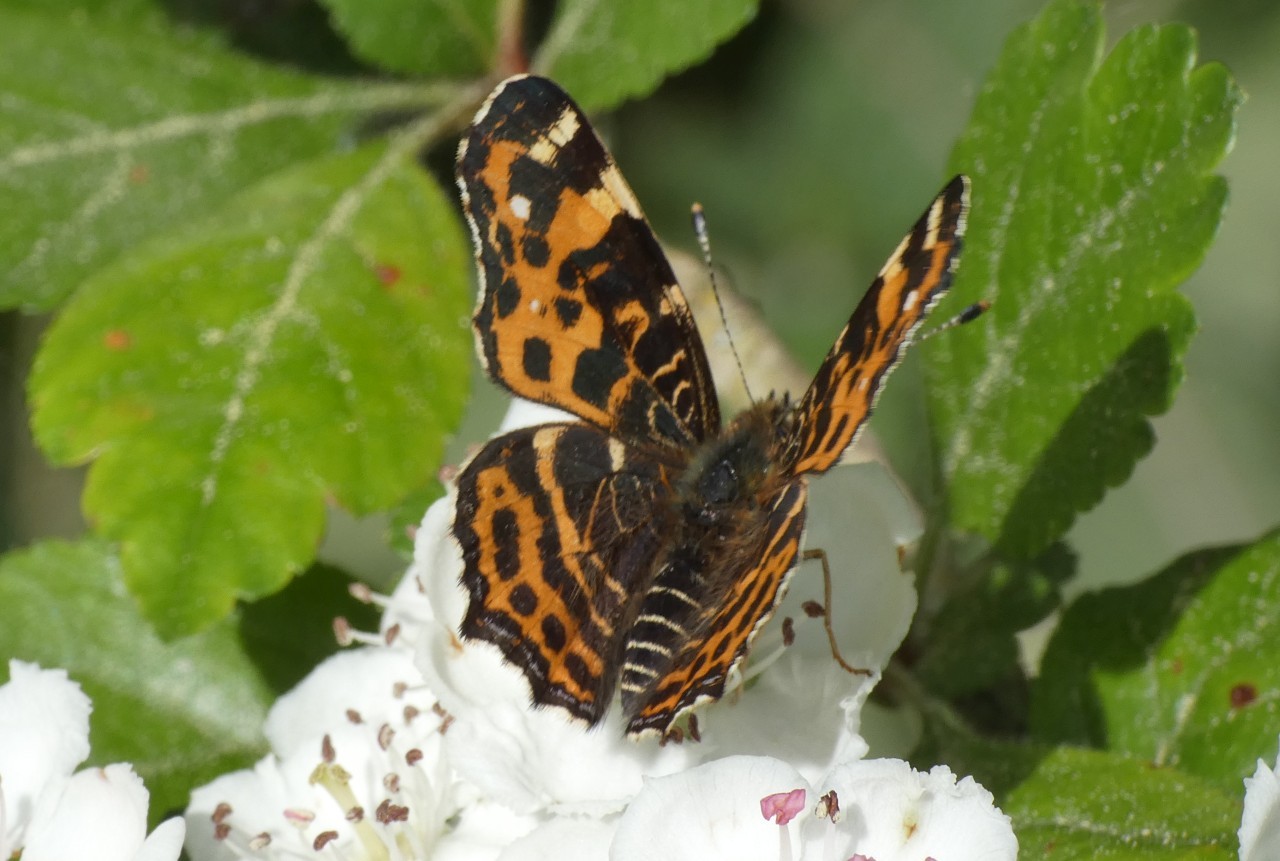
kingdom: Animalia
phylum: Arthropoda
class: Insecta
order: Lepidoptera
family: Nymphalidae
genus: Araschnia
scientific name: Araschnia levana
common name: Map butterfly
